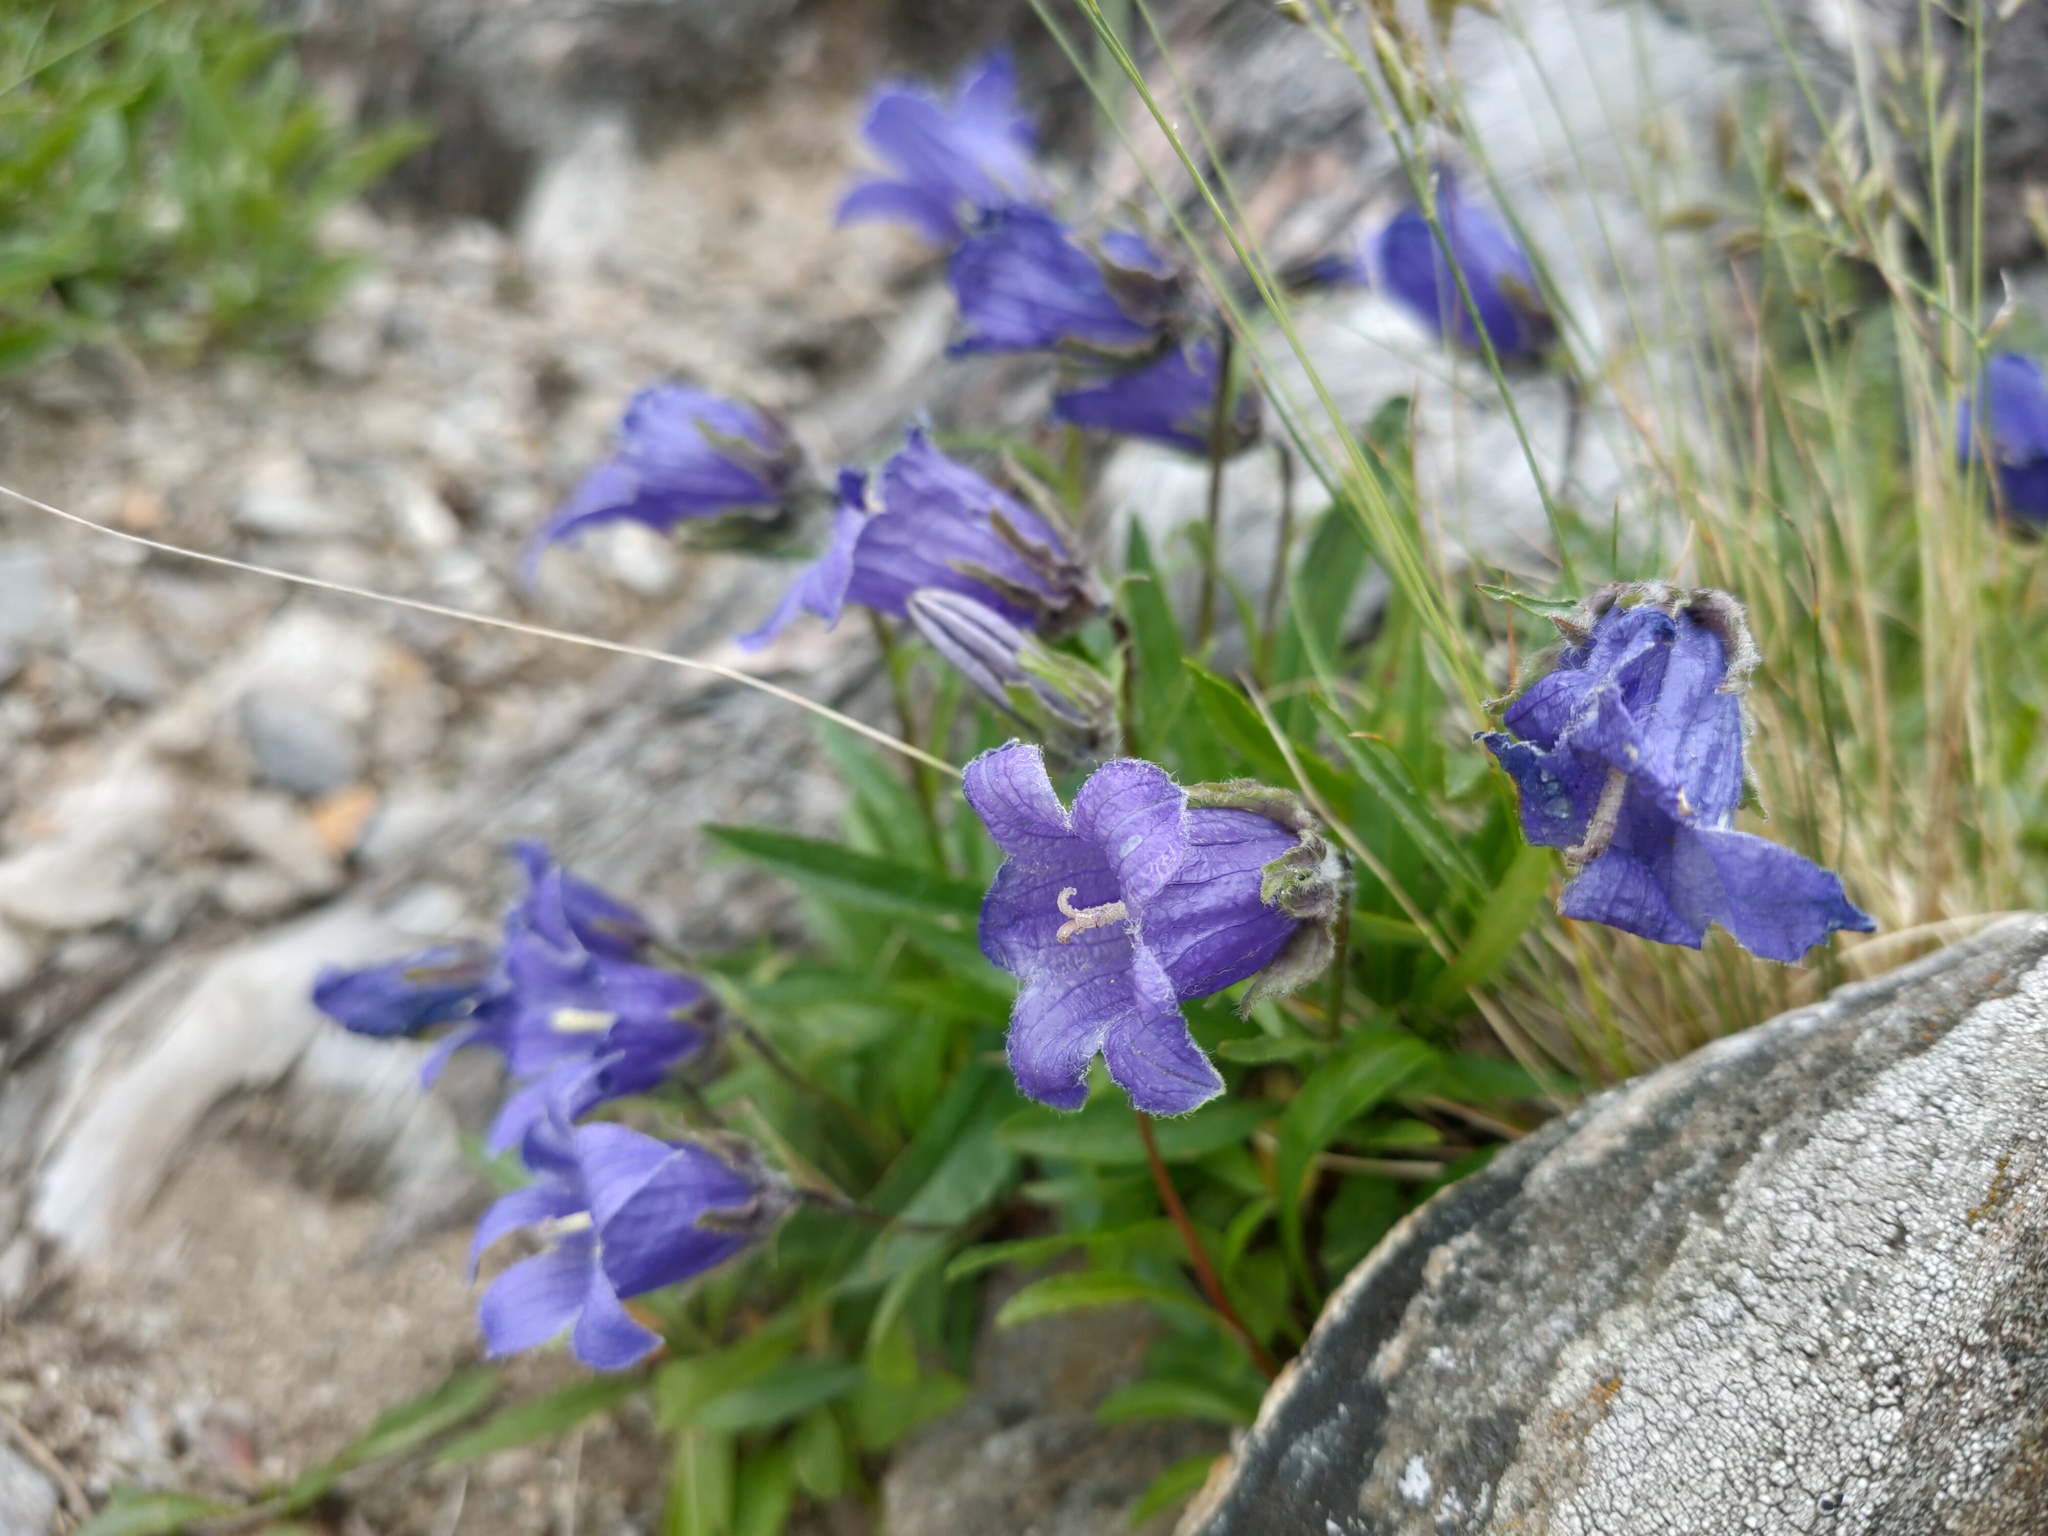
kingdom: Plantae
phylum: Tracheophyta
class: Magnoliopsida
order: Asterales
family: Campanulaceae
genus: Campanula
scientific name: Campanula dasyantha
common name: Hairyflower bellflower
